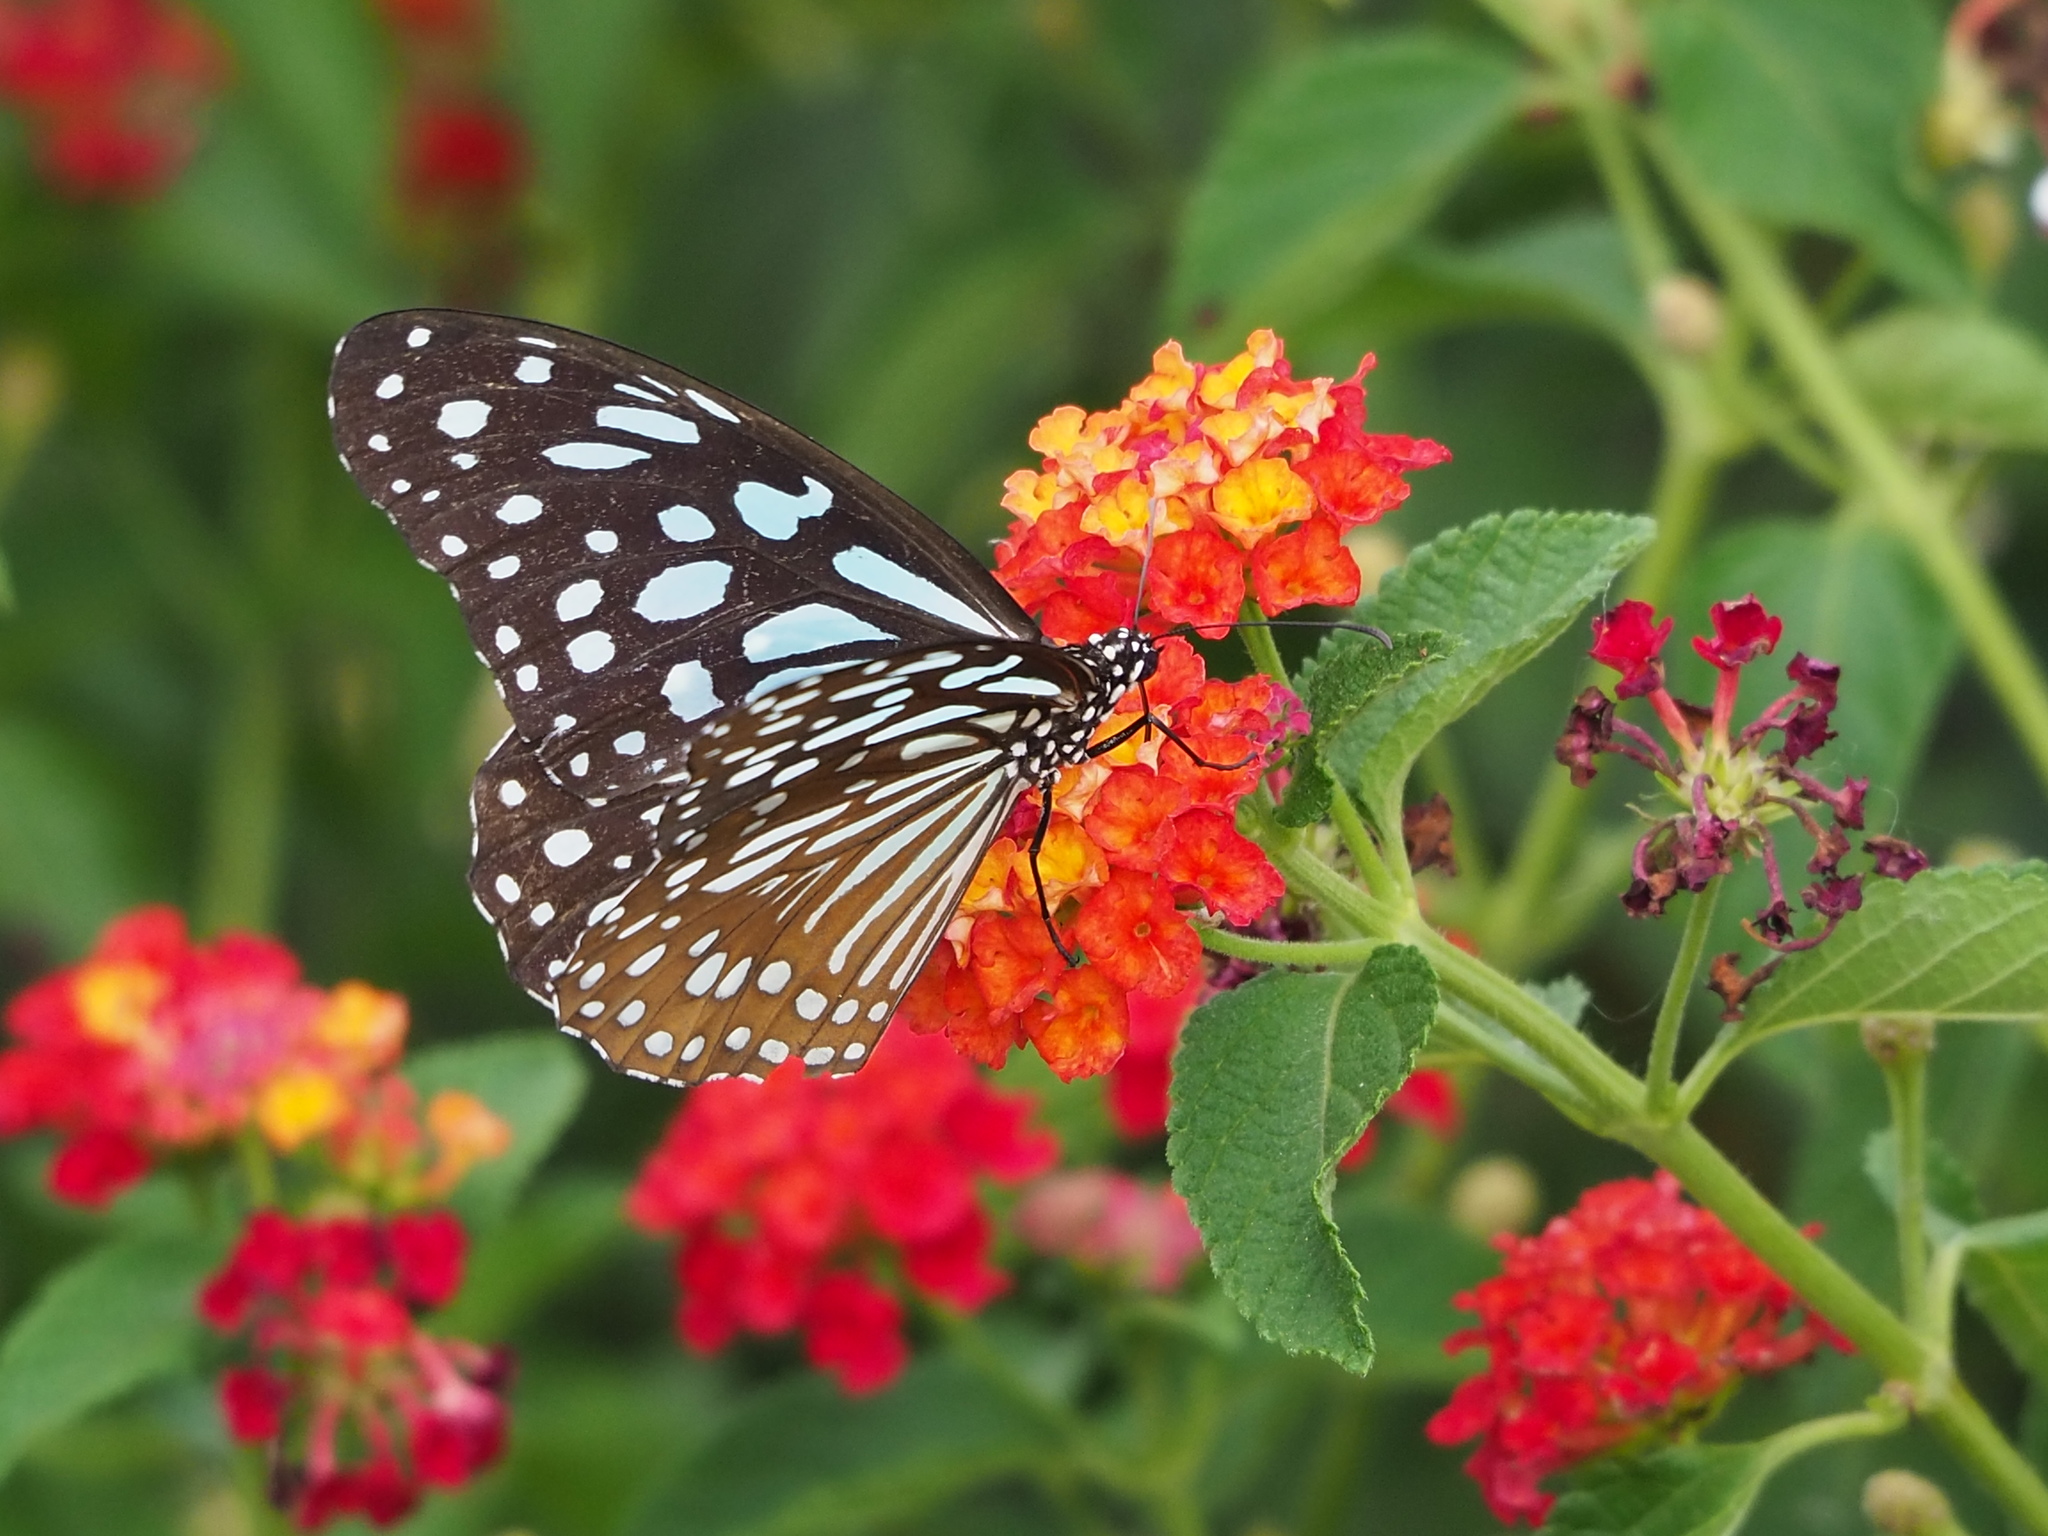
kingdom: Animalia
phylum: Arthropoda
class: Insecta
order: Lepidoptera
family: Nymphalidae
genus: Tirumala
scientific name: Tirumala limniace
